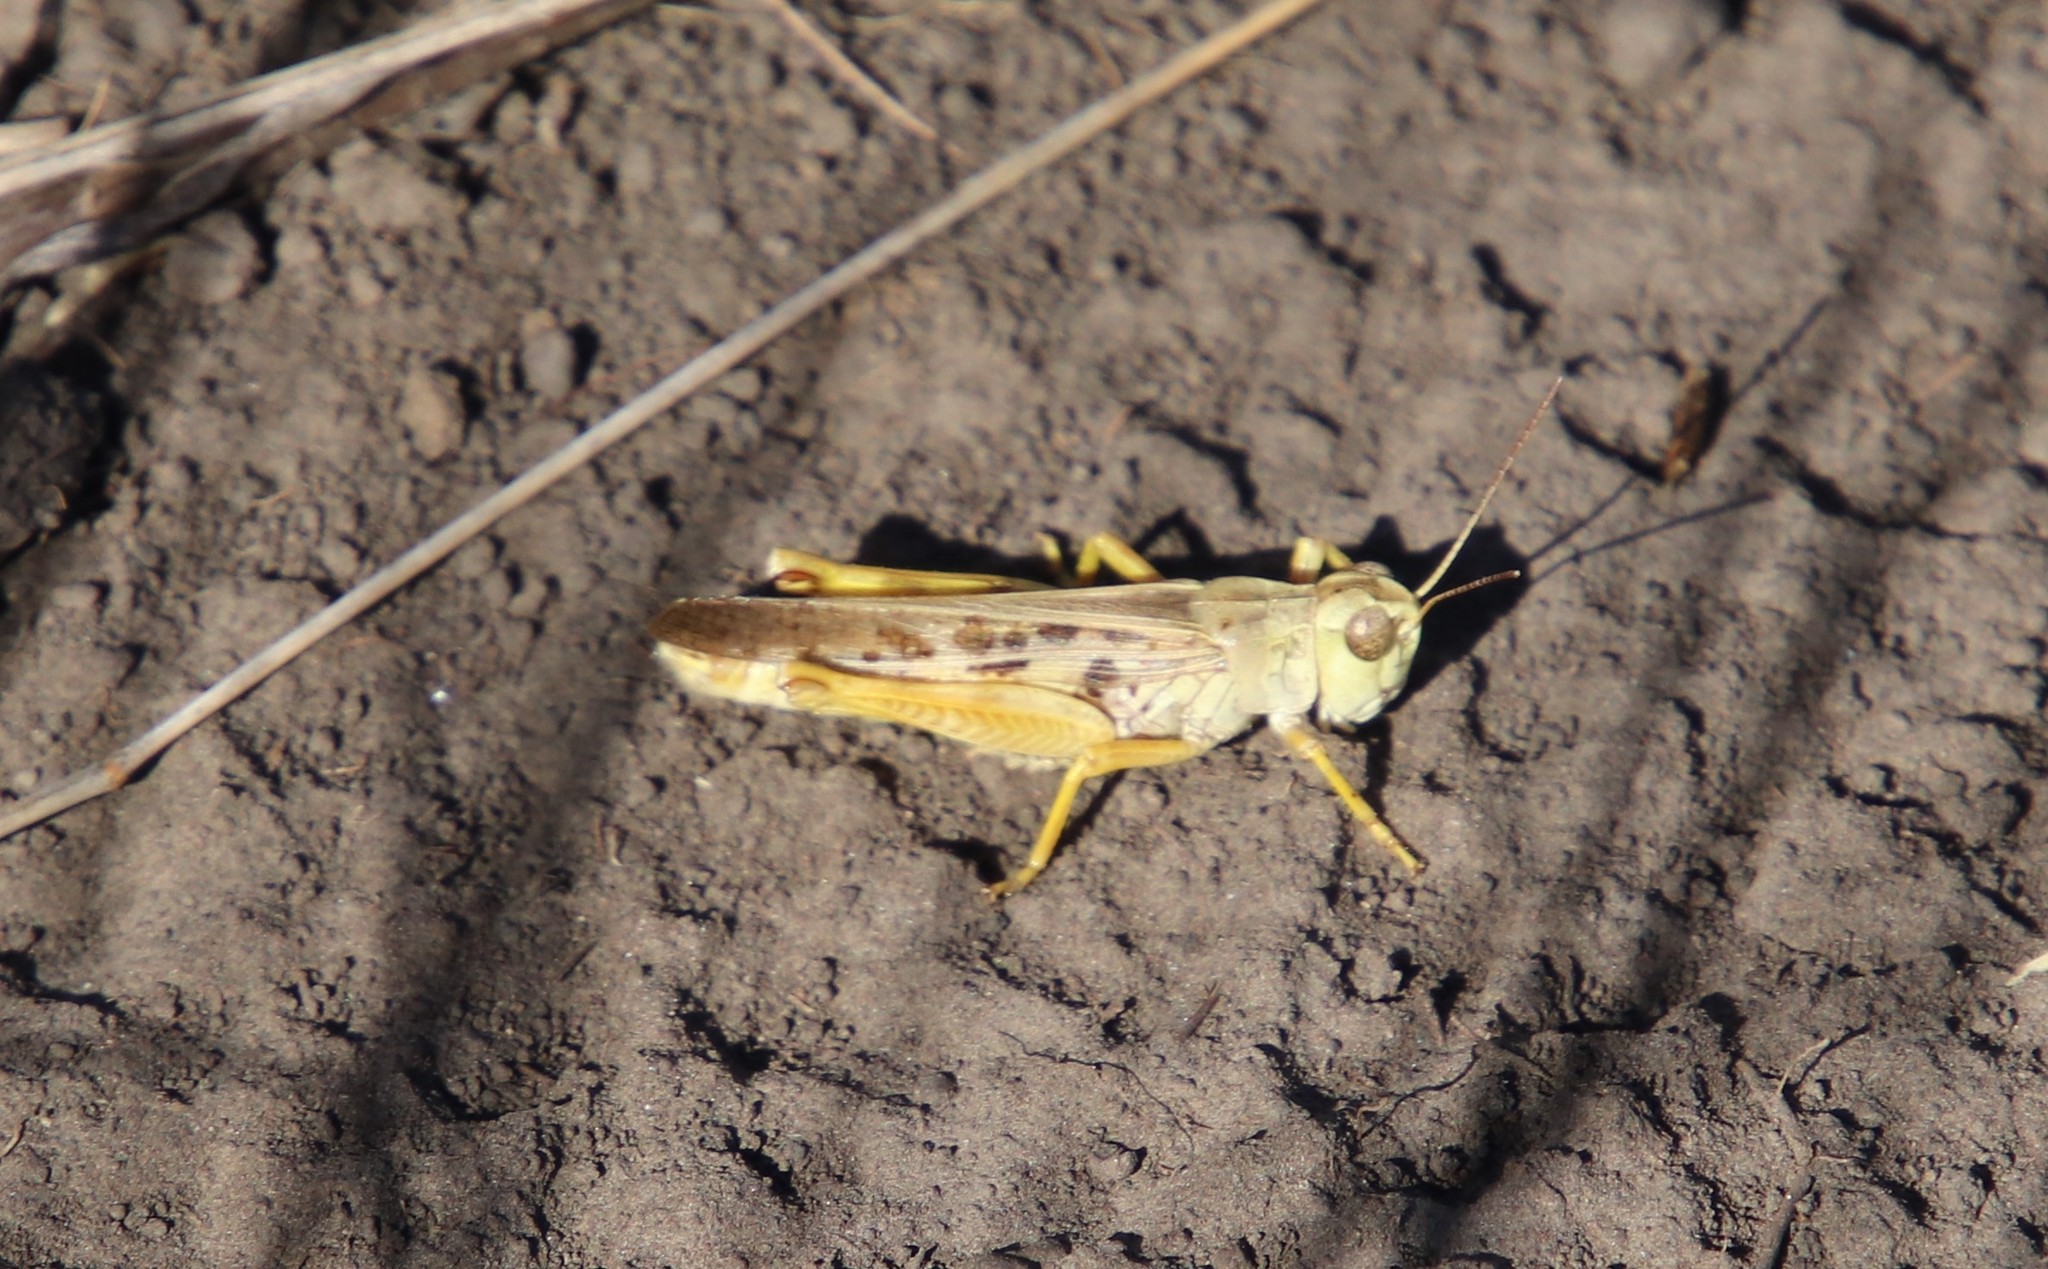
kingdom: Animalia
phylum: Arthropoda
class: Insecta
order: Orthoptera
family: Acrididae
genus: Camnula
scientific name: Camnula pellucida
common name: Clear-winged grasshopper
